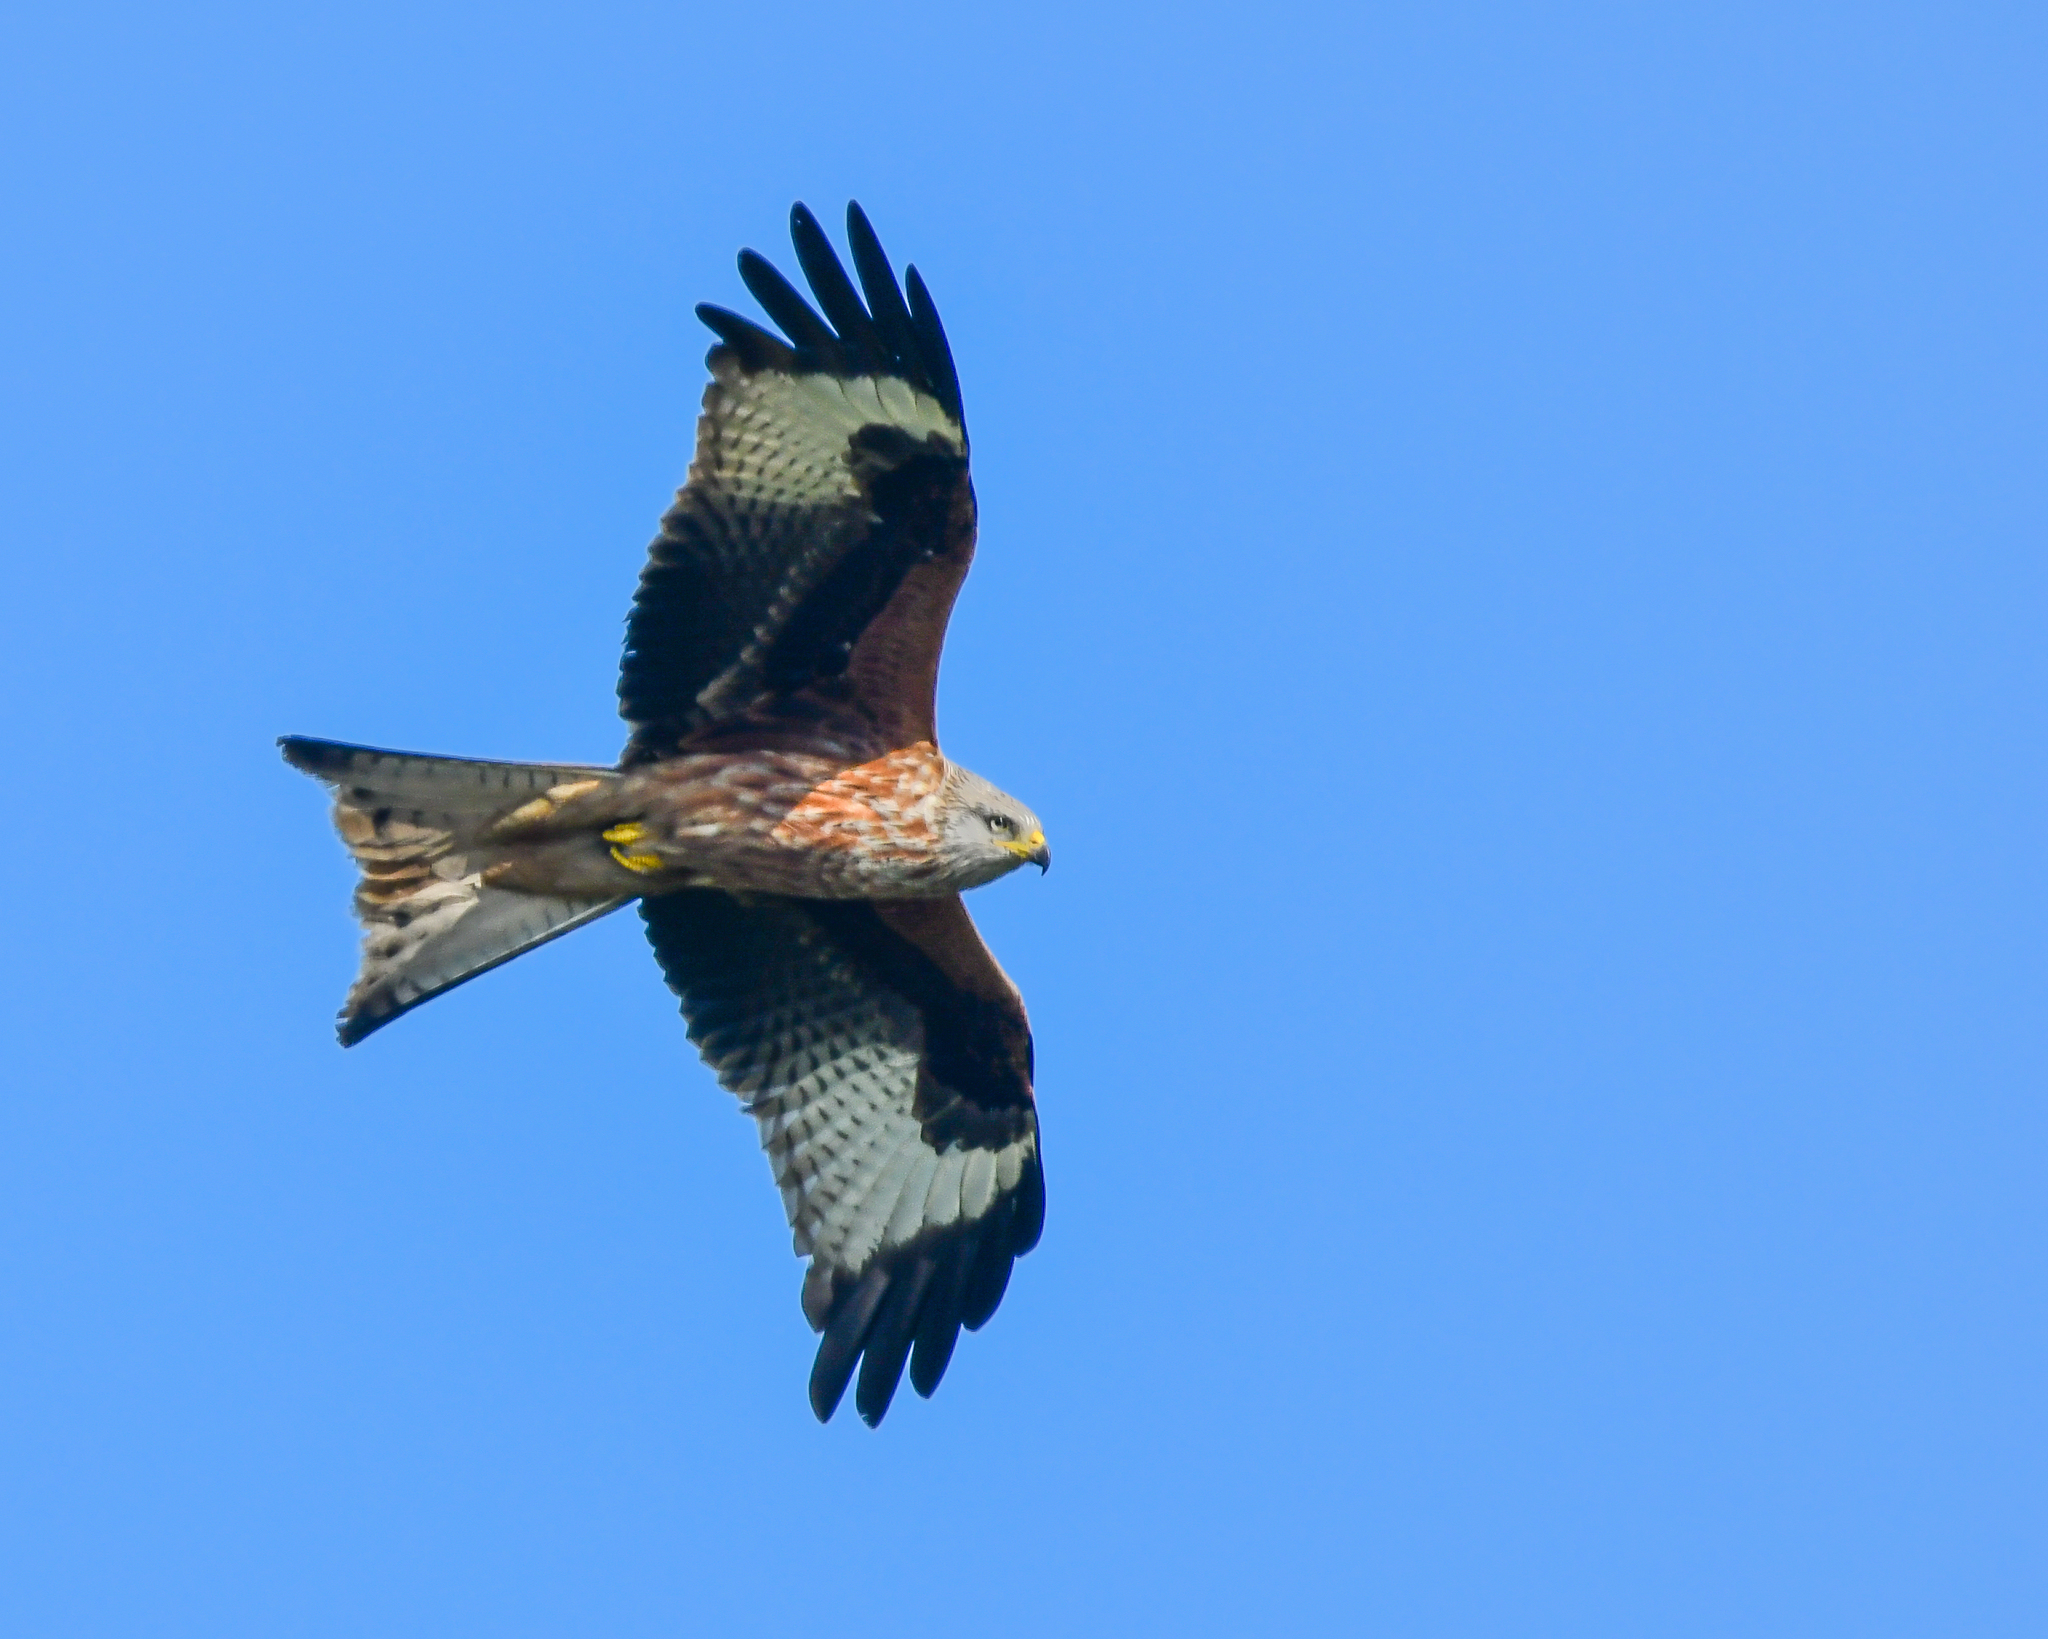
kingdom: Animalia
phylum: Chordata
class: Aves
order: Accipitriformes
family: Accipitridae
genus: Milvus
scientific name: Milvus milvus
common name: Red kite
